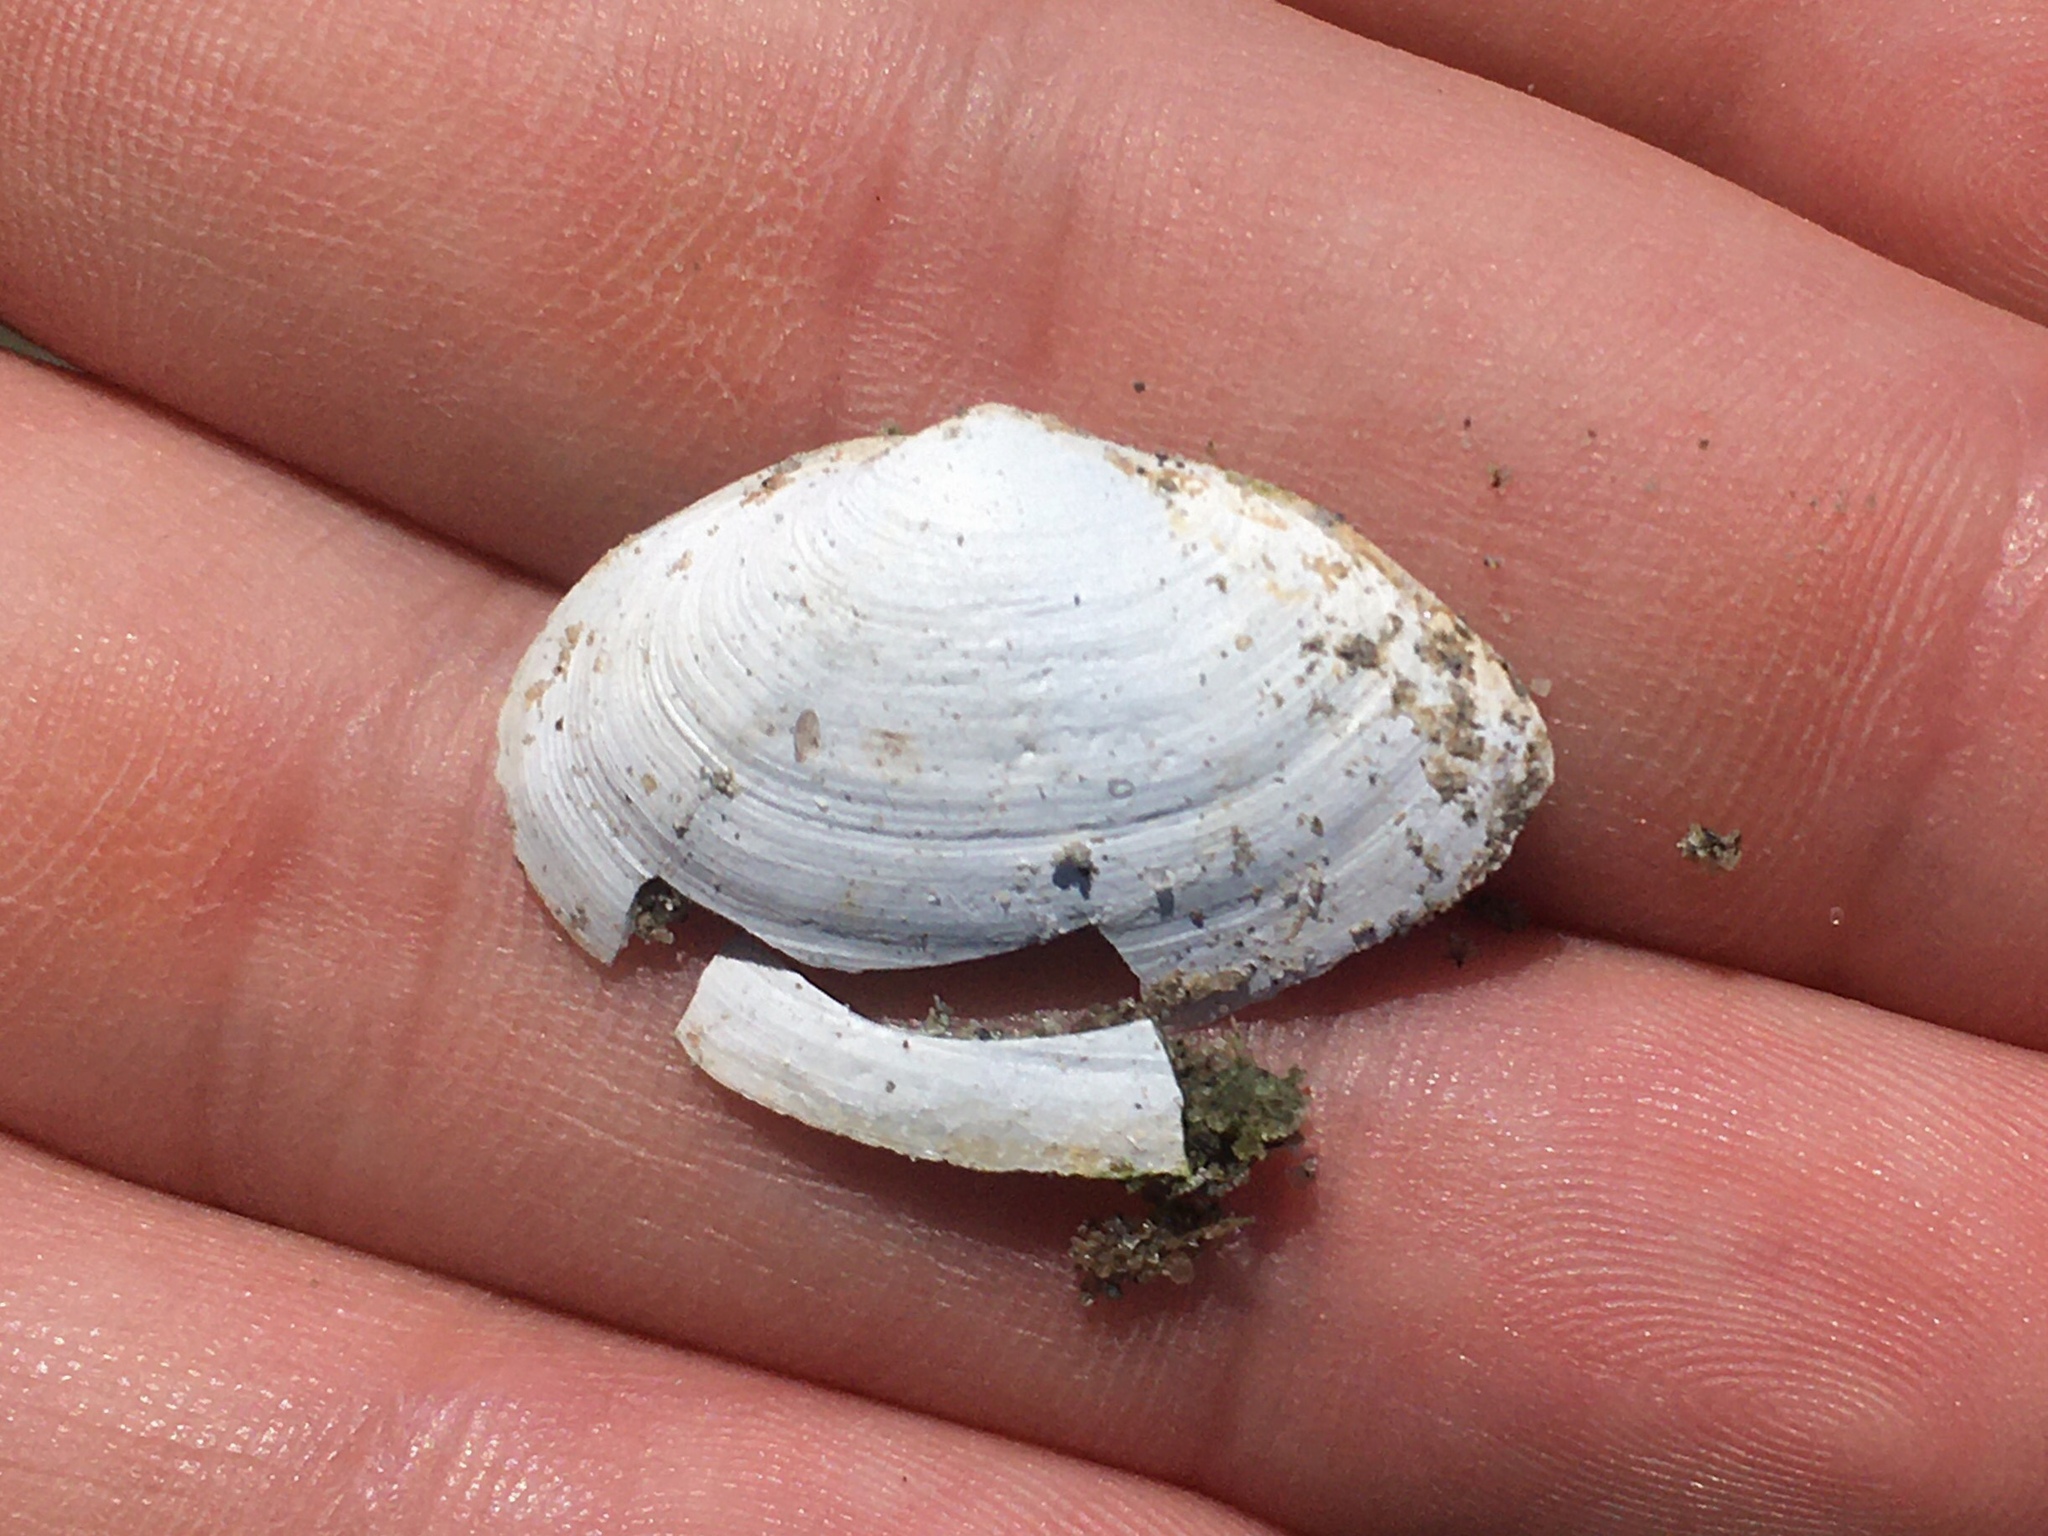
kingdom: Animalia
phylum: Mollusca
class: Bivalvia
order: Myida
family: Myidae
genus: Mya
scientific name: Mya arenaria
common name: Soft-shelled clam
